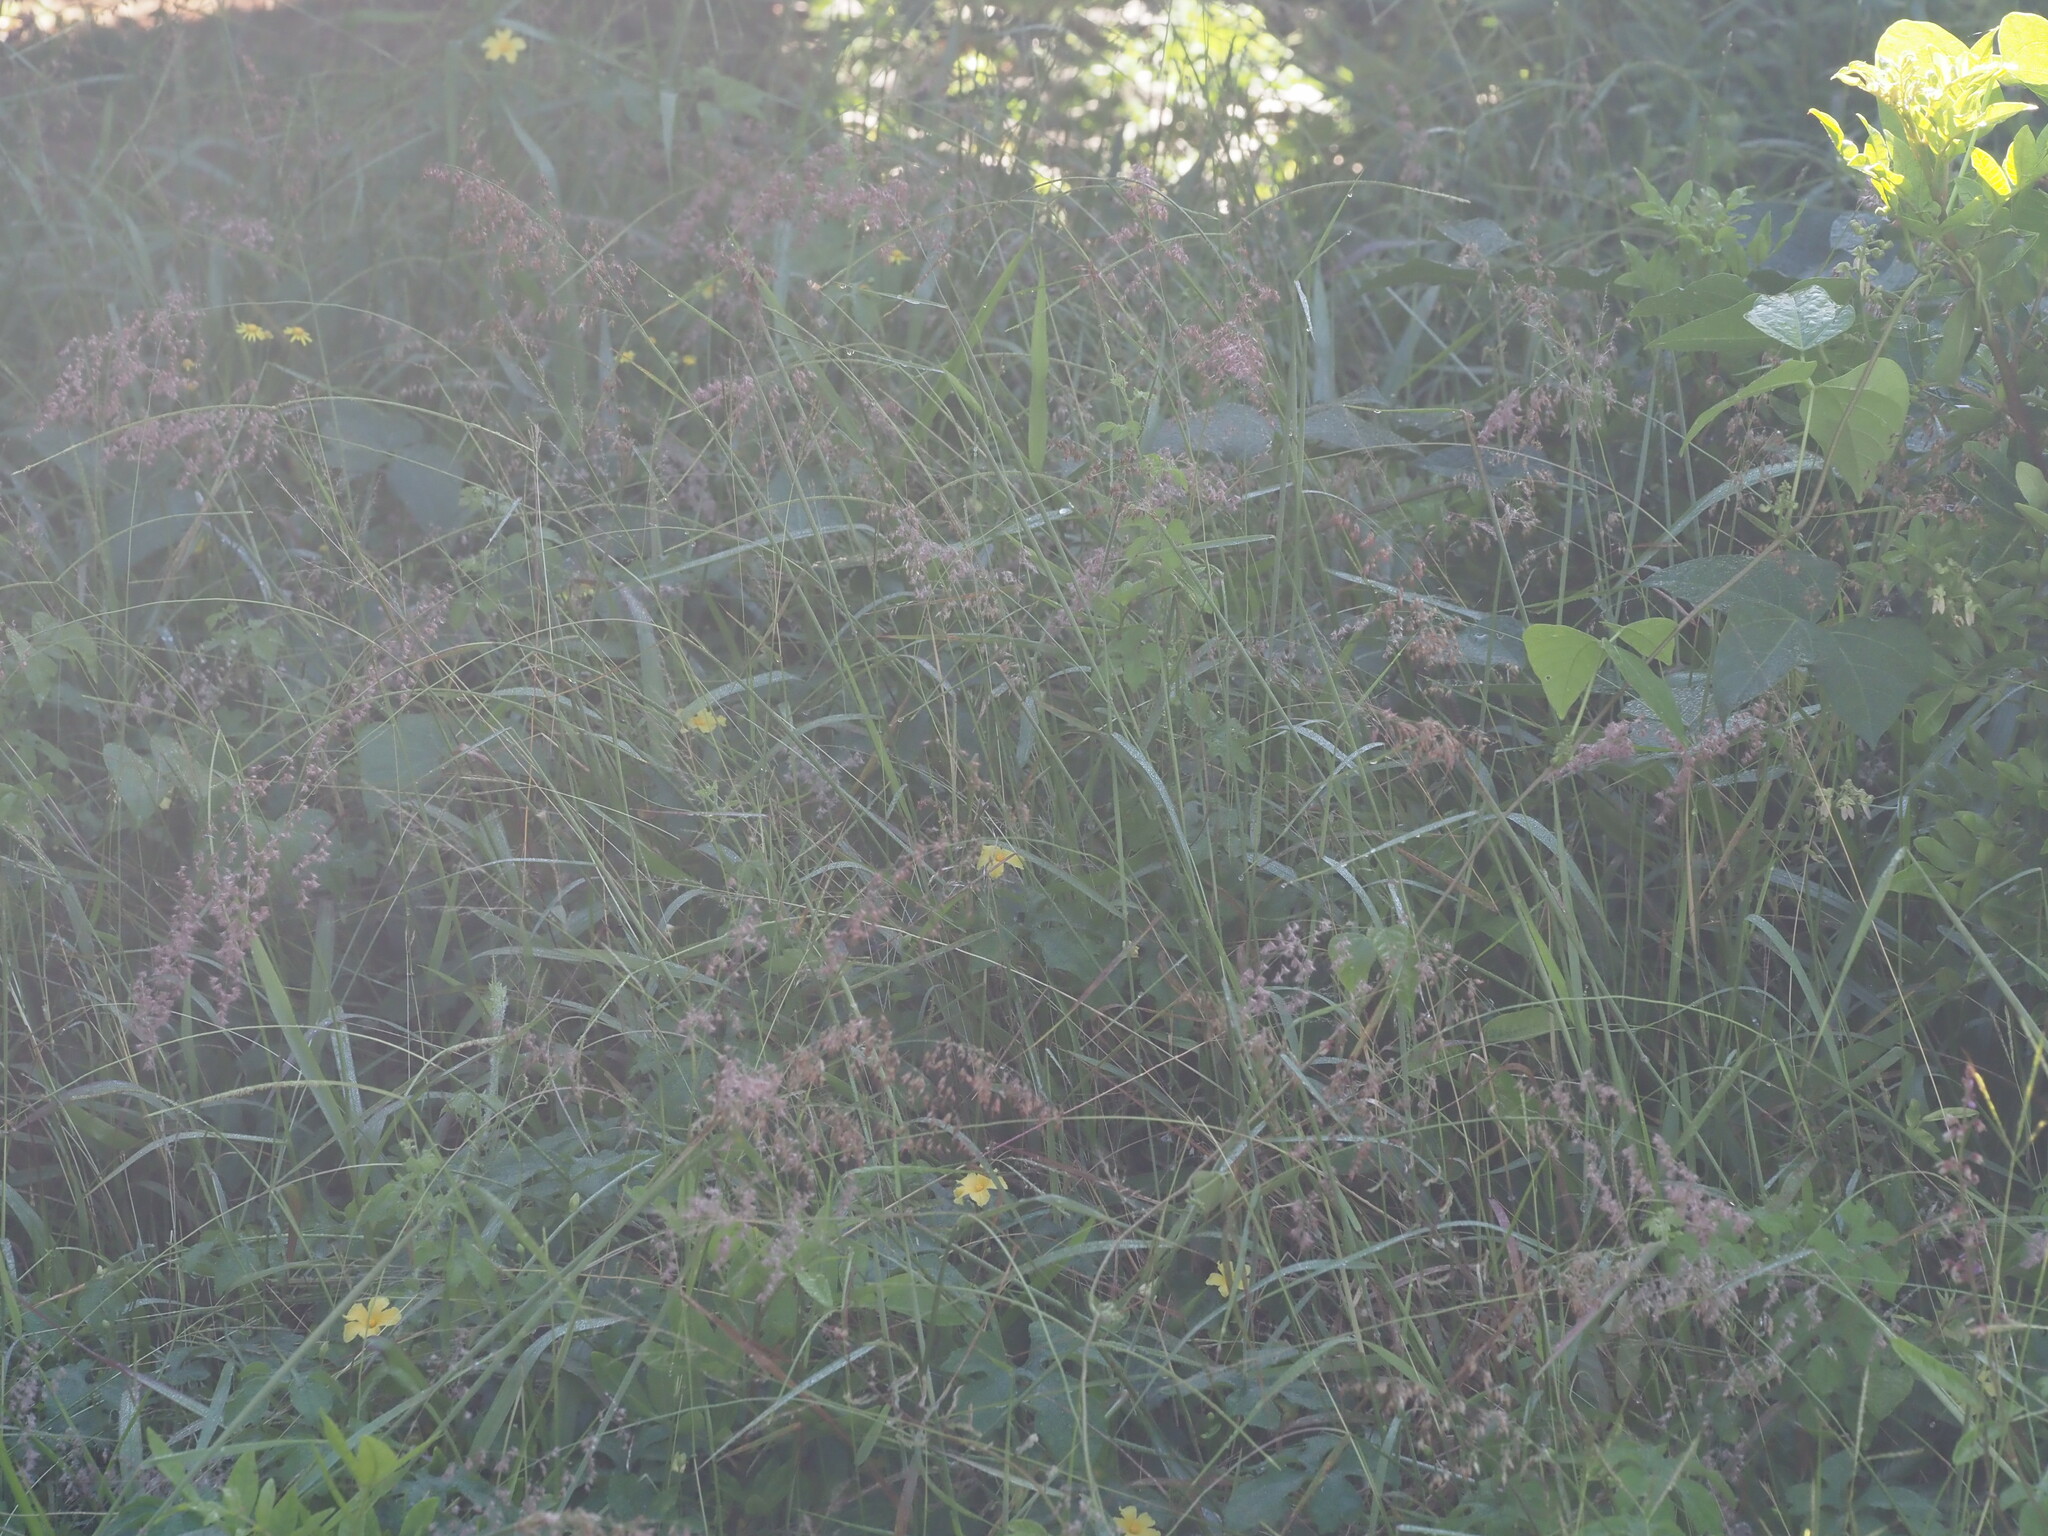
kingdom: Plantae
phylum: Tracheophyta
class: Liliopsida
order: Poales
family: Poaceae
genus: Melinis
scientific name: Melinis repens
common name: Rose natal grass
